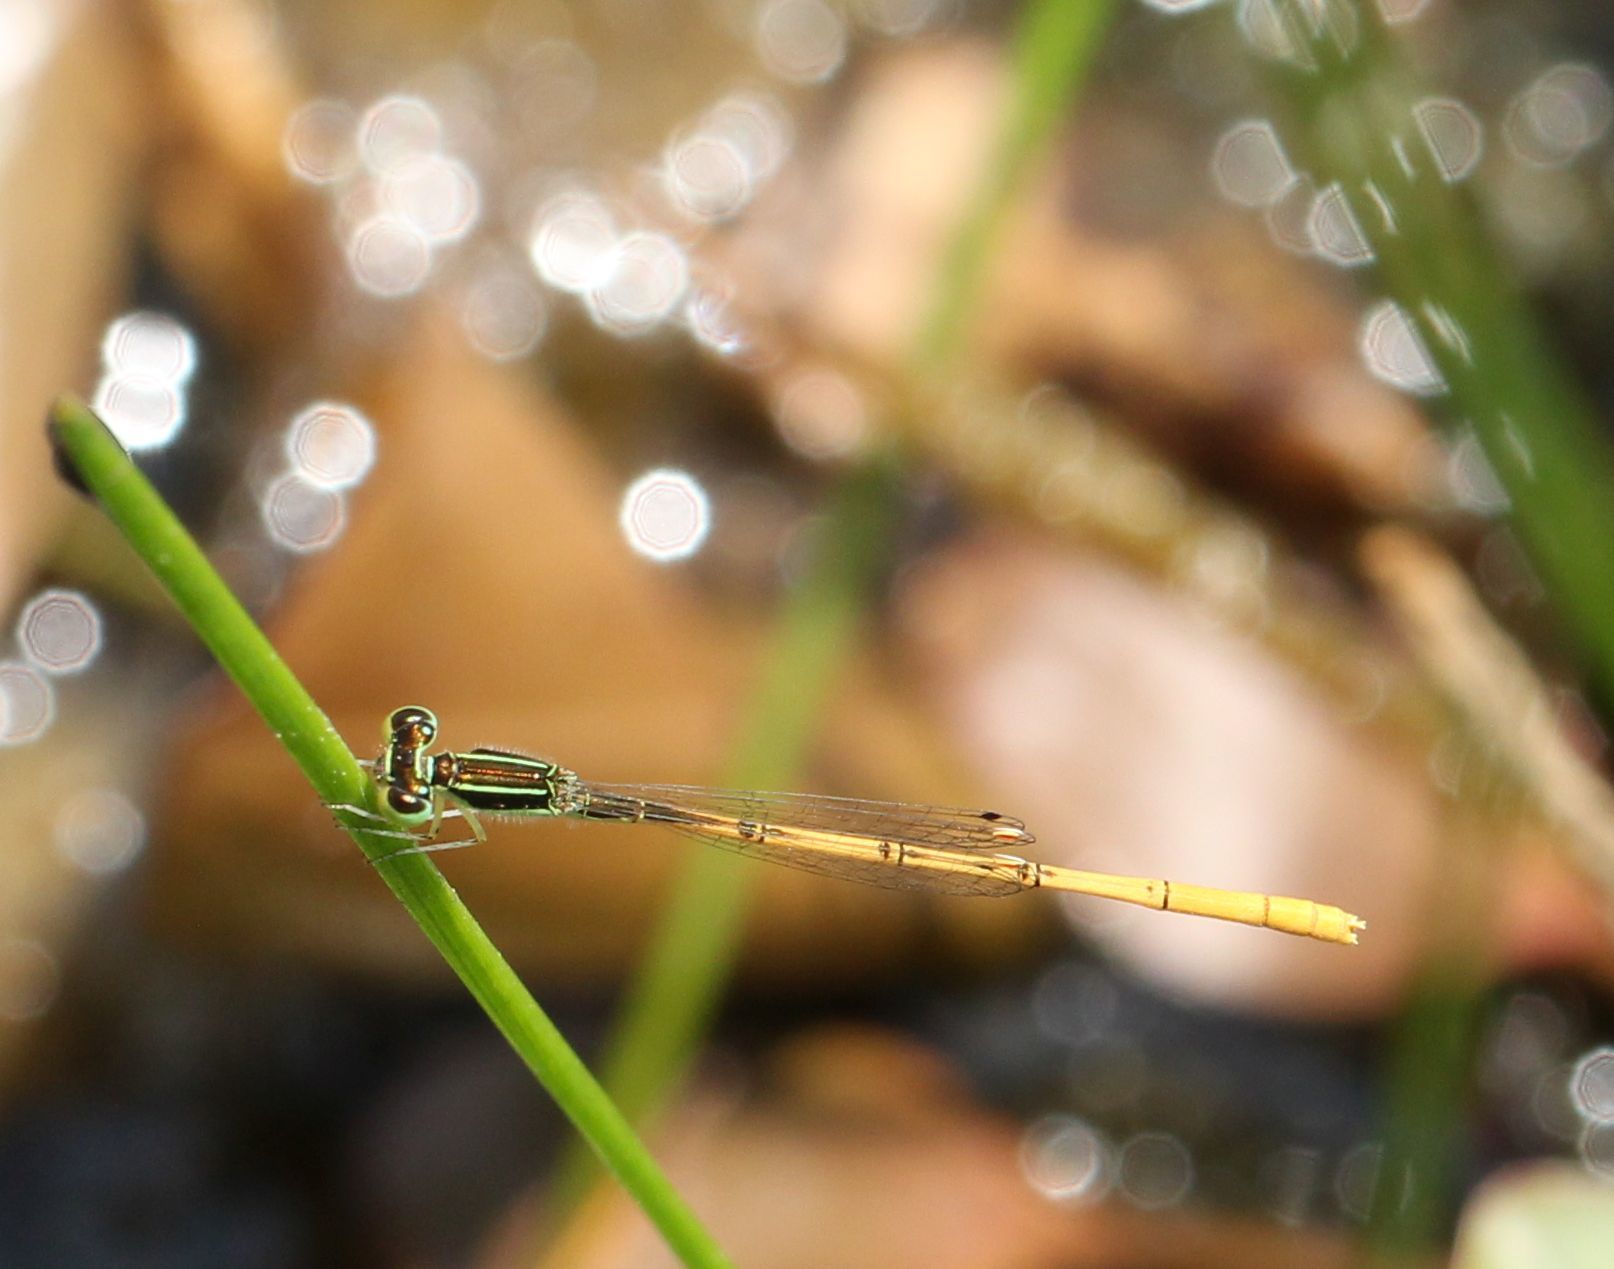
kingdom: Animalia
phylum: Arthropoda
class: Insecta
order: Odonata
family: Coenagrionidae
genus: Ischnura
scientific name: Ischnura hastata
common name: Citrine forktail
